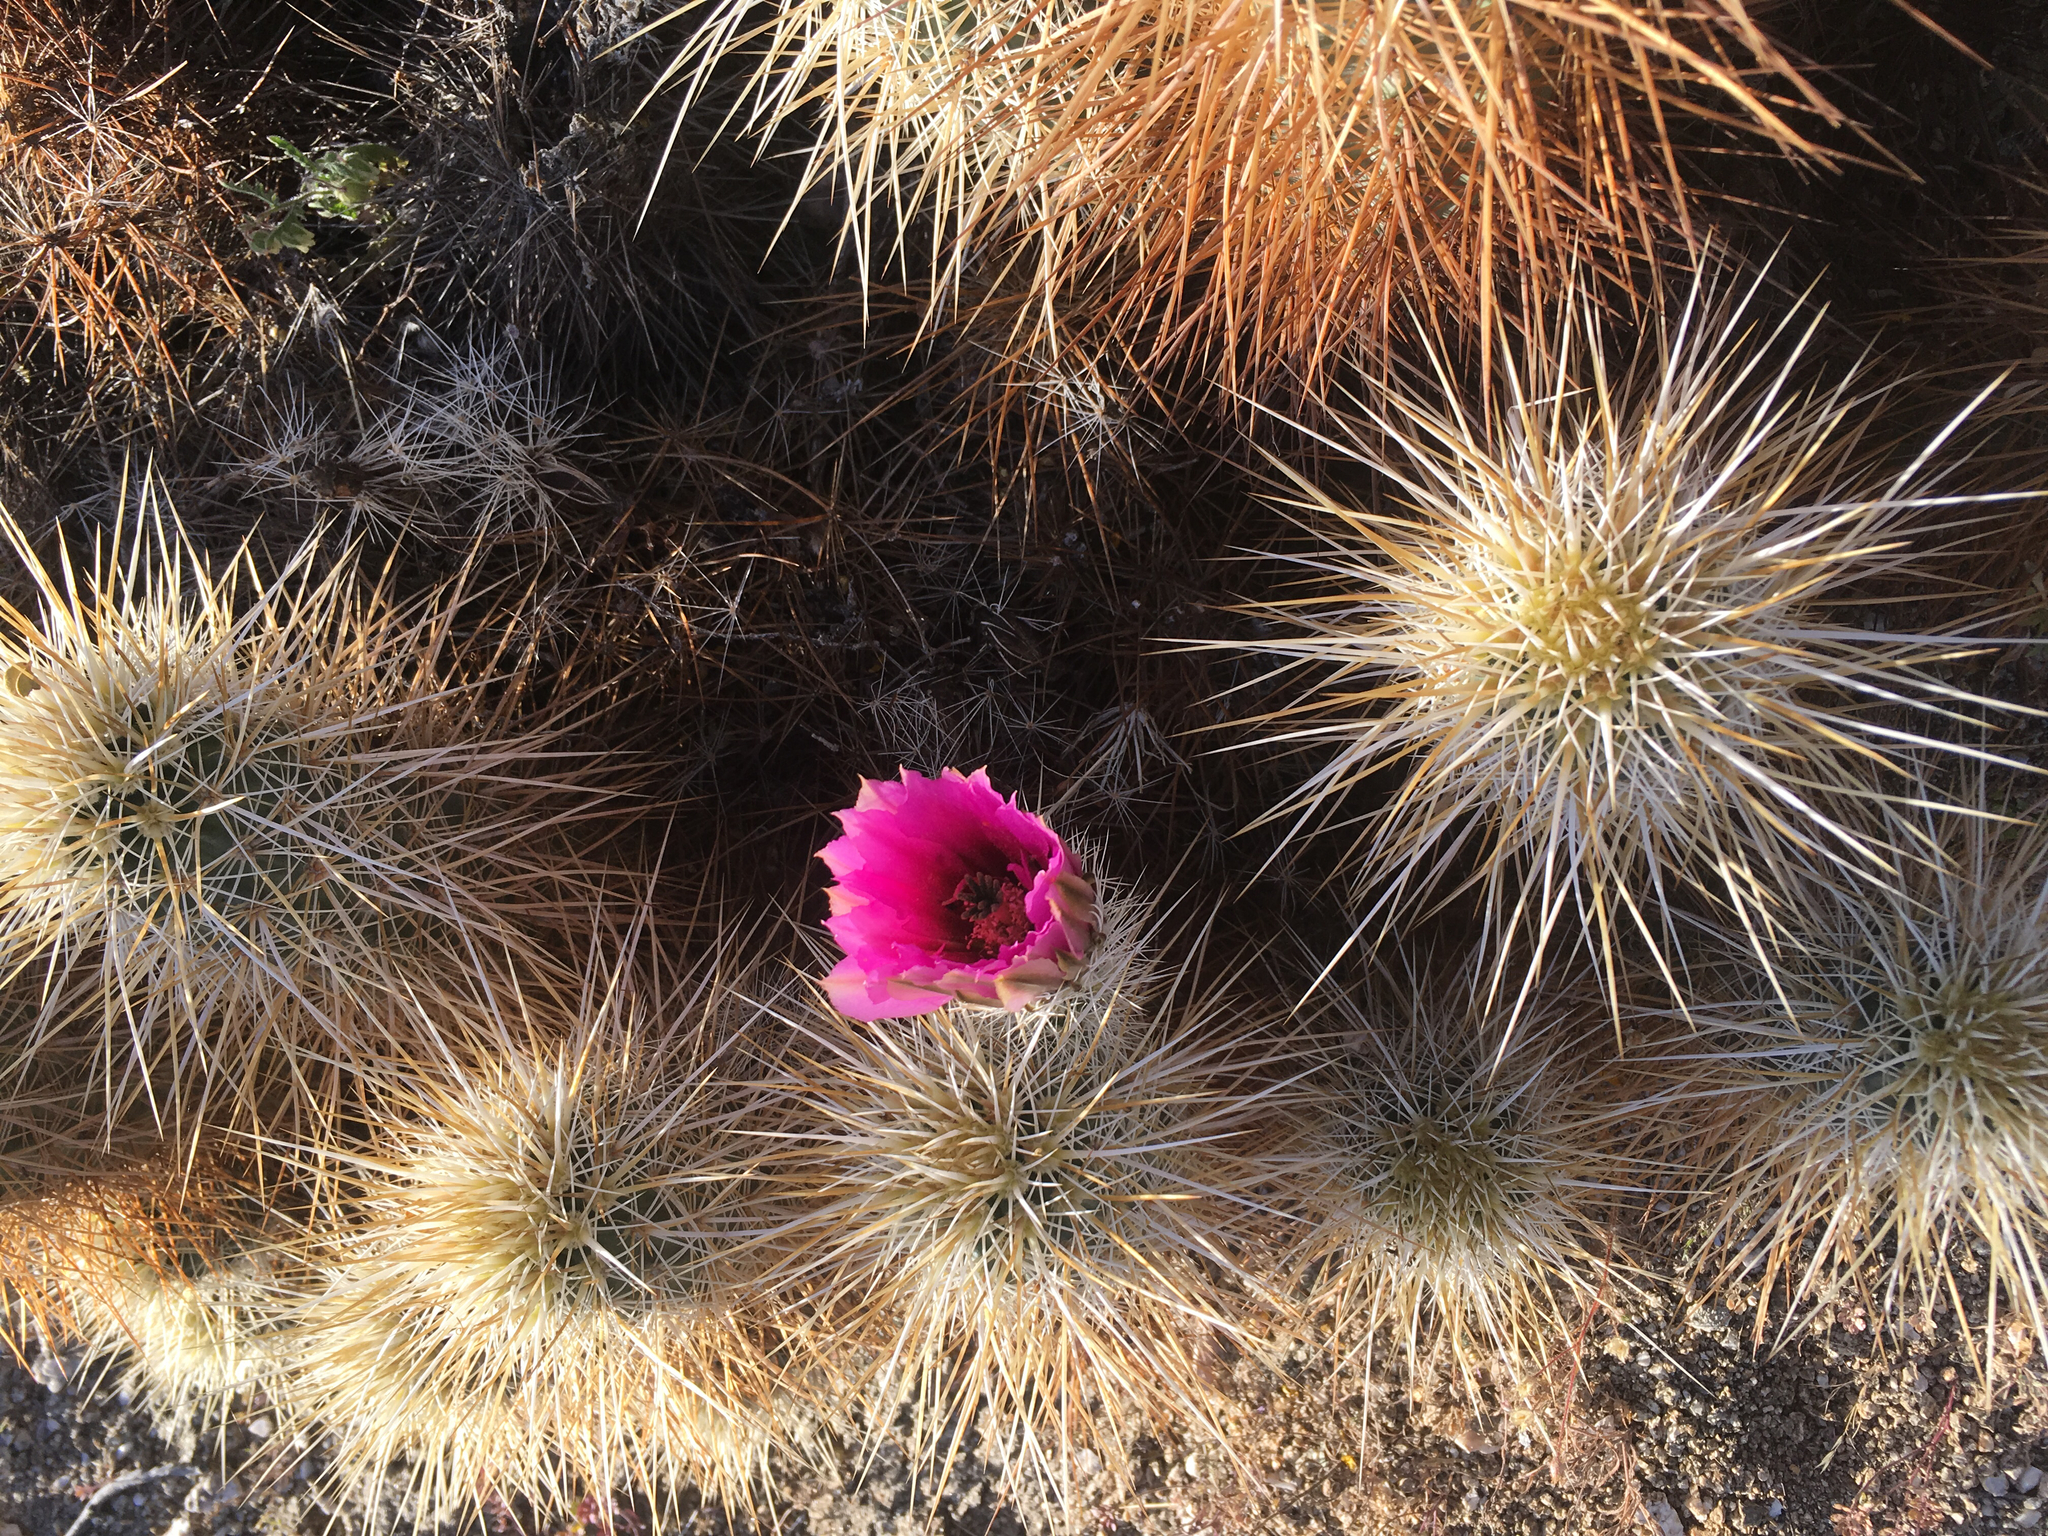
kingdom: Plantae
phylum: Tracheophyta
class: Magnoliopsida
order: Caryophyllales
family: Cactaceae
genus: Echinocereus
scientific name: Echinocereus engelmannii
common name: Engelmann's hedgehog cactus
